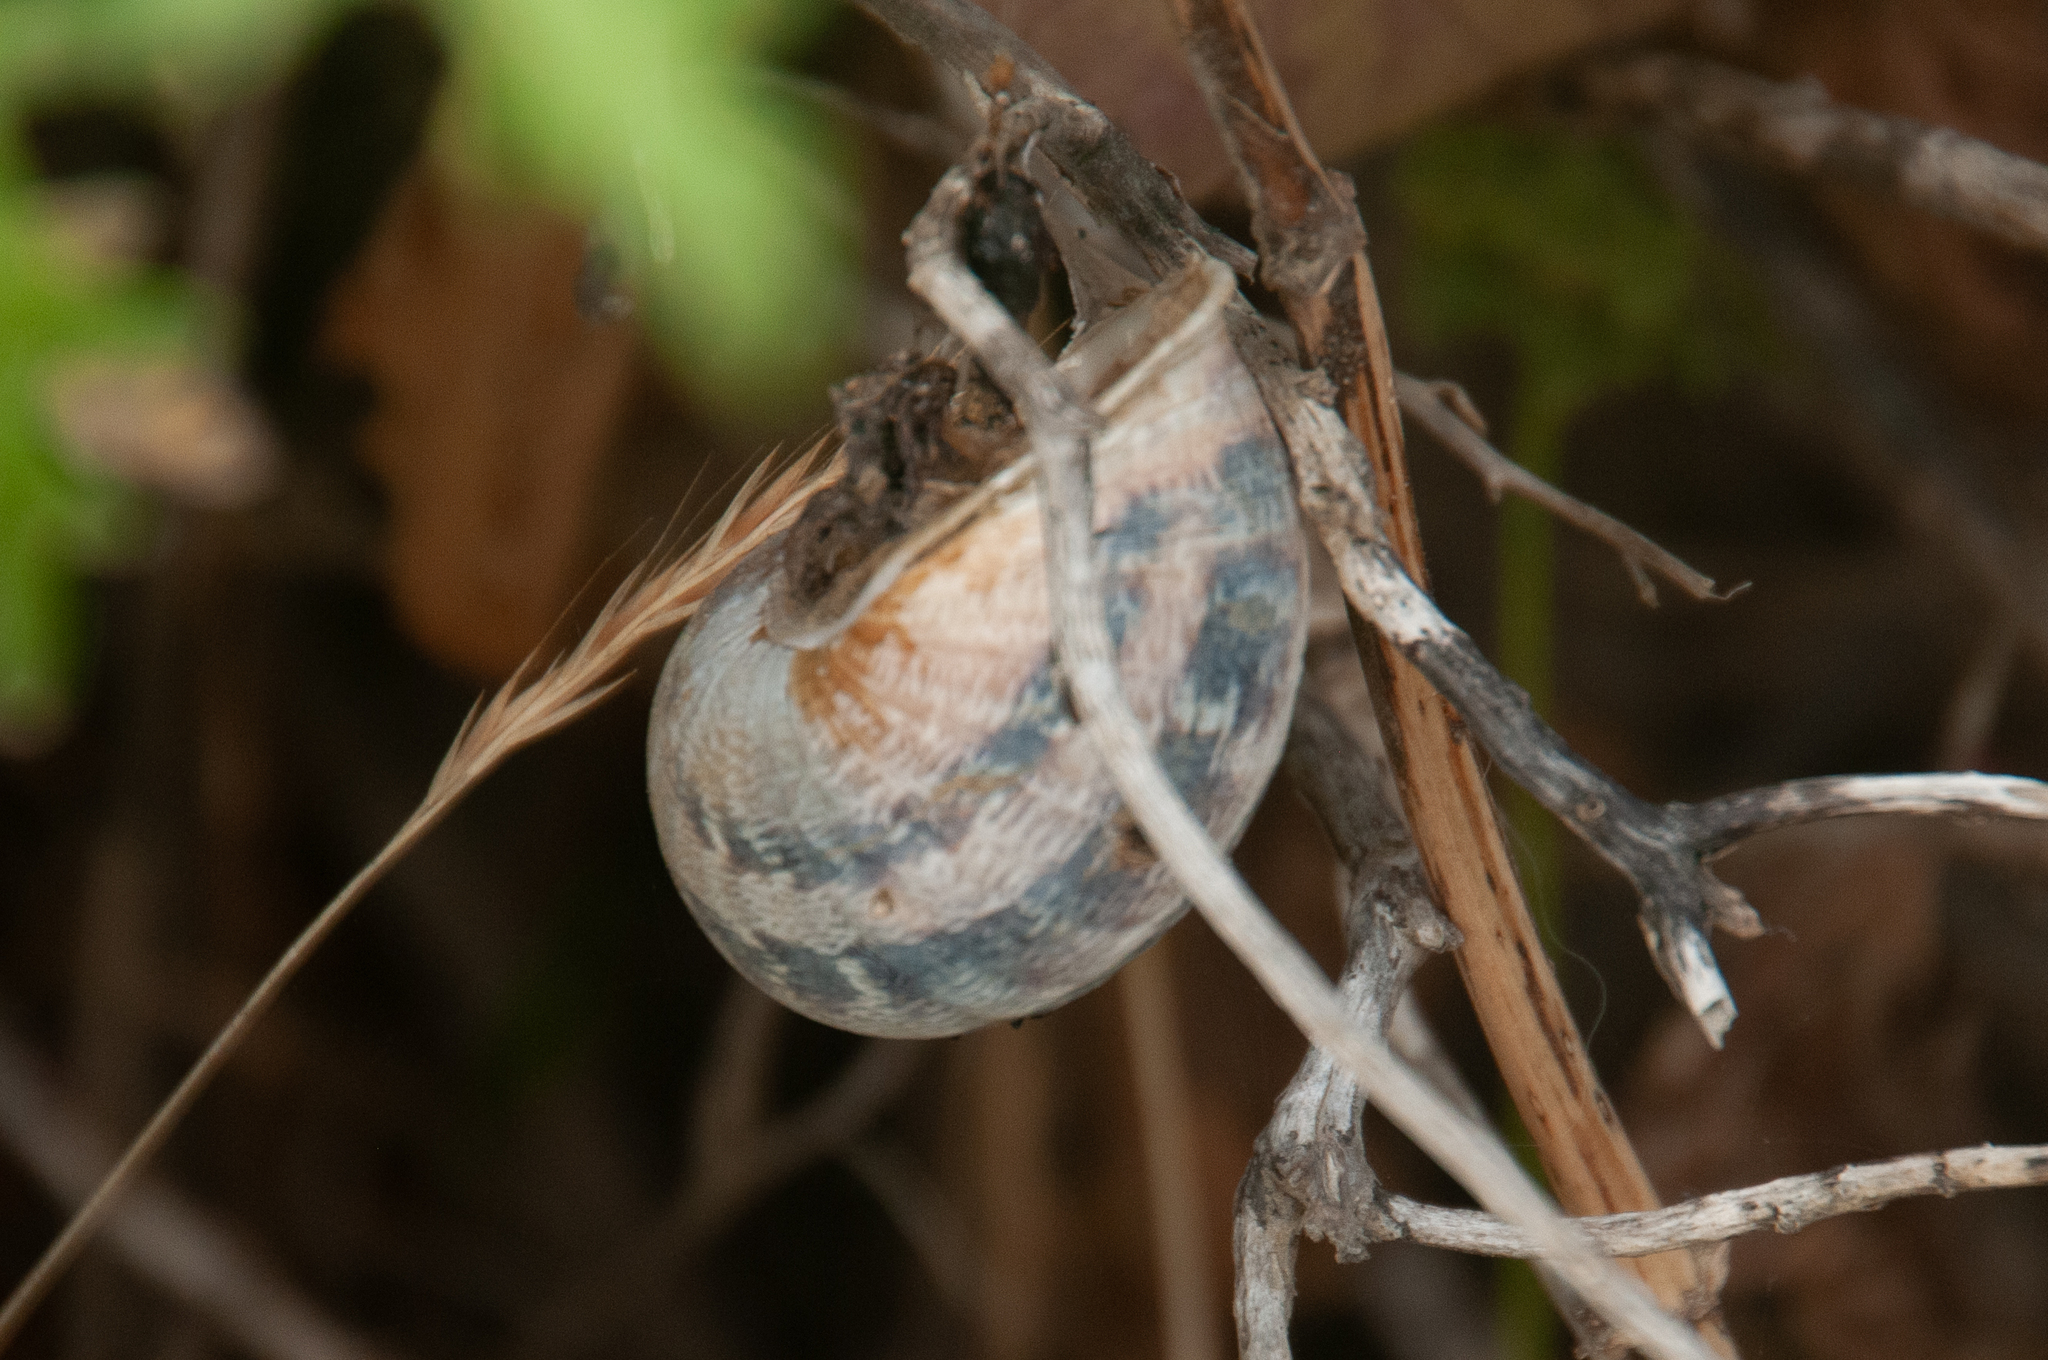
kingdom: Animalia
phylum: Mollusca
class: Gastropoda
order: Stylommatophora
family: Helicidae
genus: Cornu
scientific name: Cornu aspersum
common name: Brown garden snail
